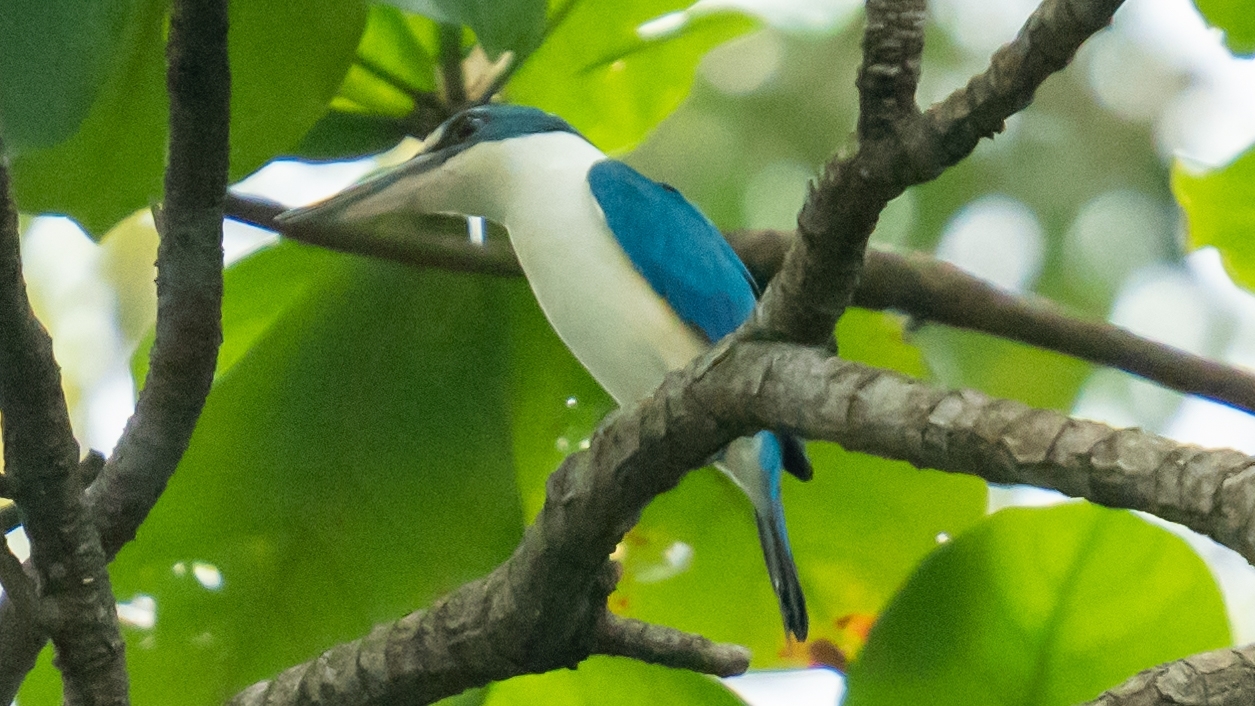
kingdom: Animalia
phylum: Chordata
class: Aves
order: Coraciiformes
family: Alcedinidae
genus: Todiramphus
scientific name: Todiramphus chloris
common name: Collared kingfisher
